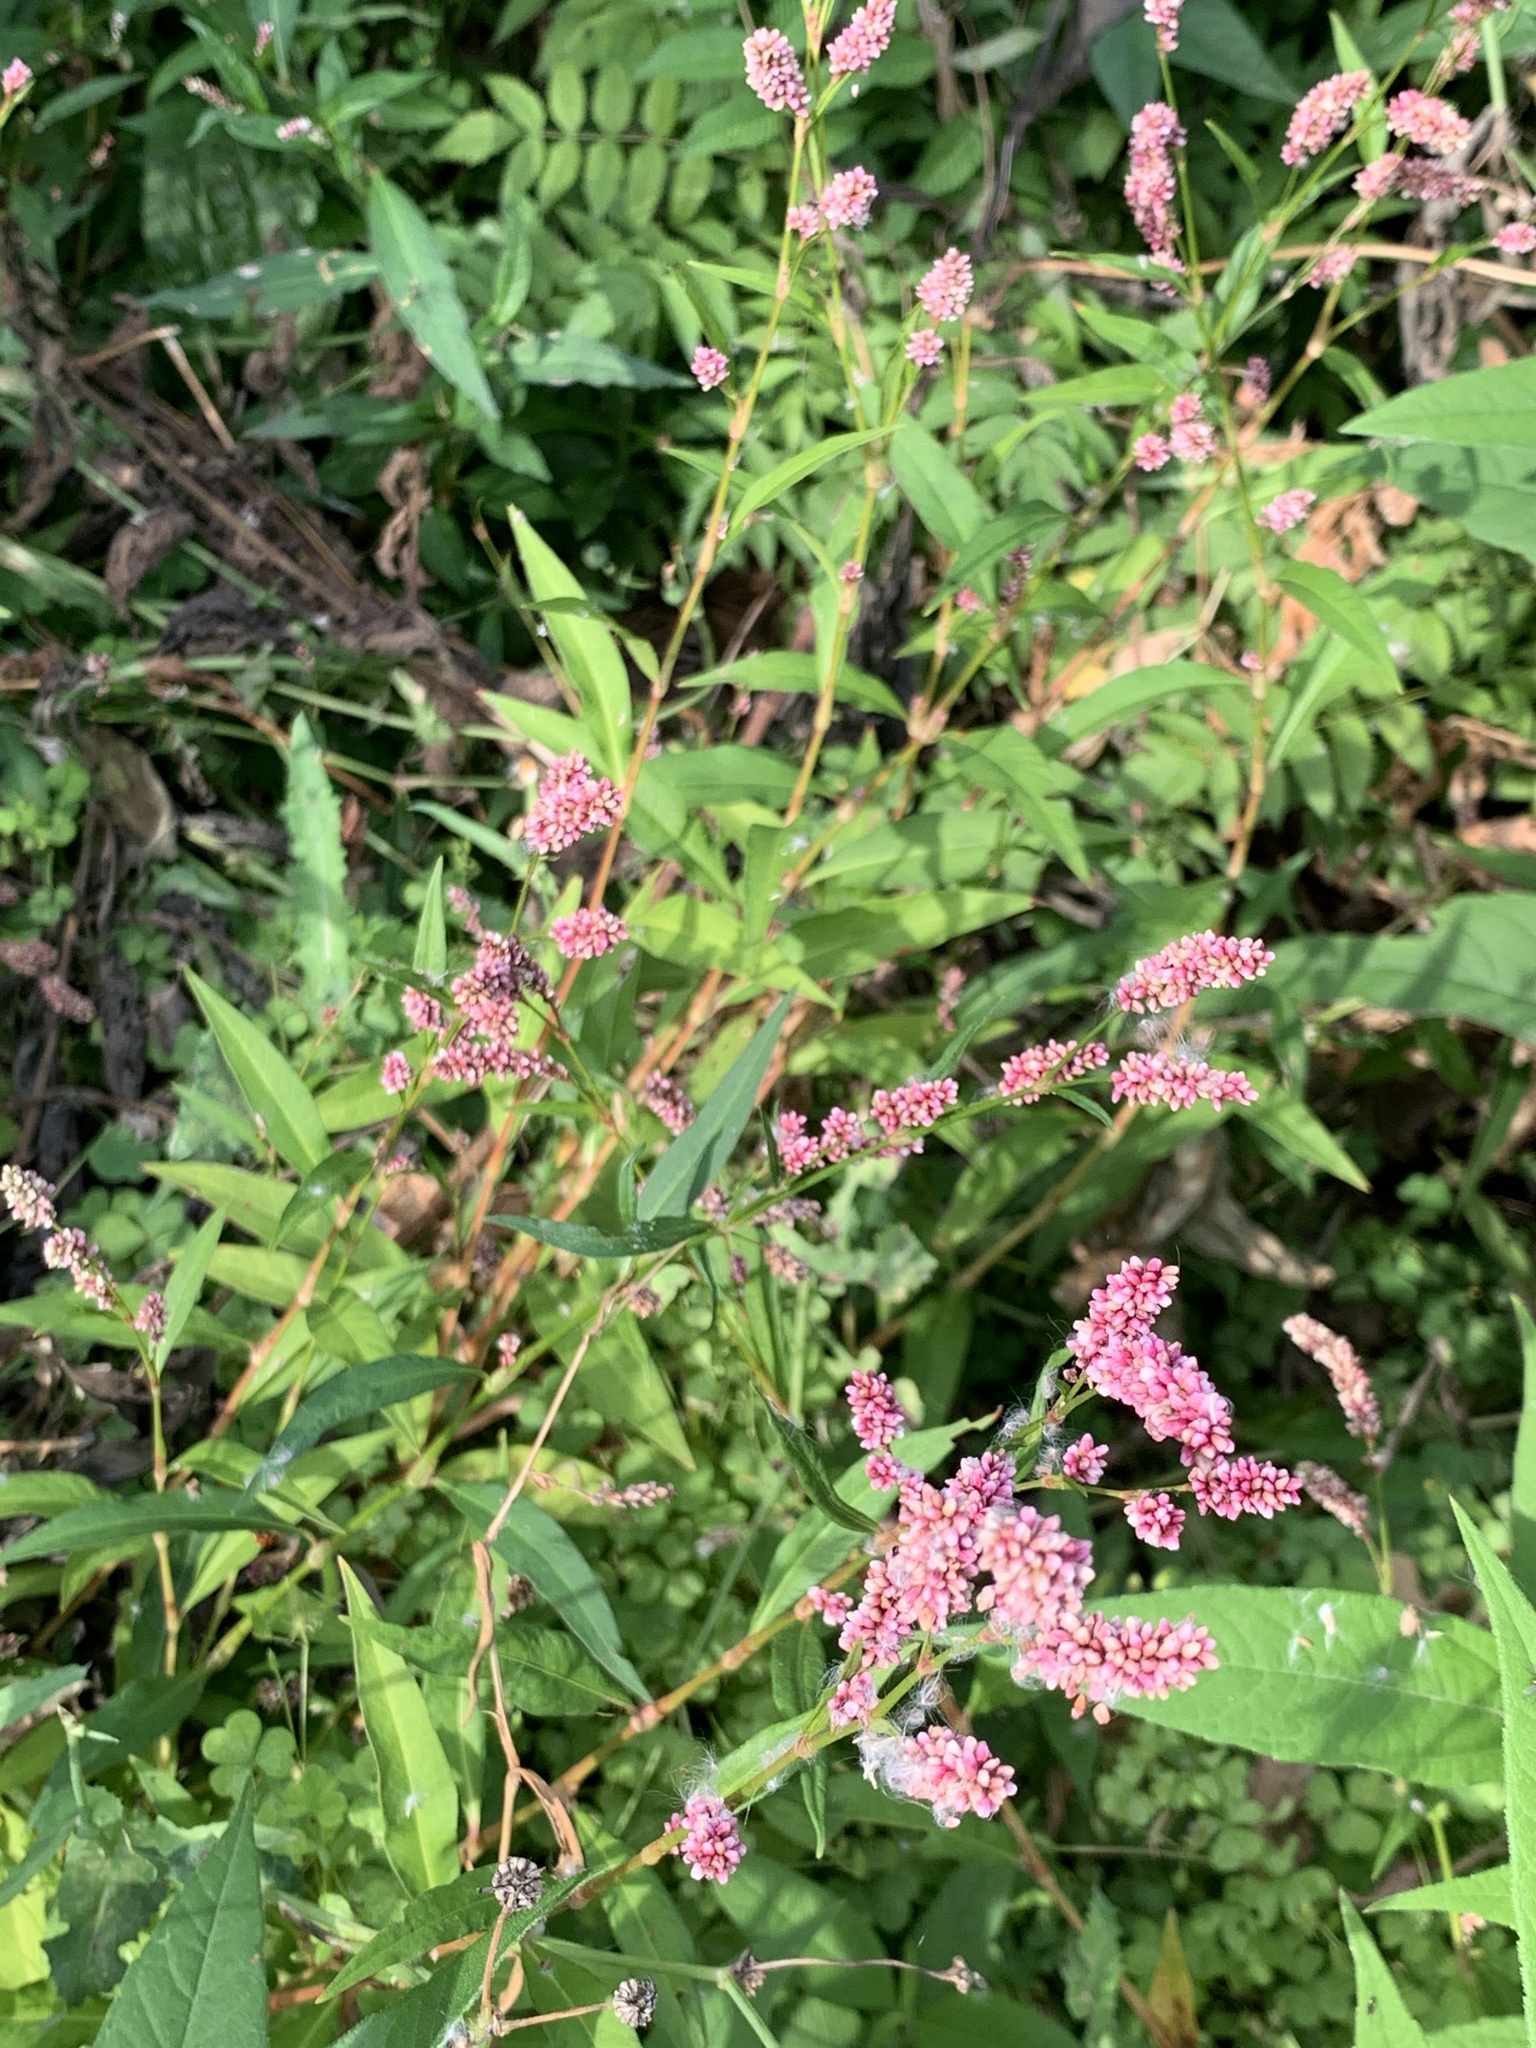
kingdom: Plantae
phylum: Tracheophyta
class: Magnoliopsida
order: Caryophyllales
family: Polygonaceae
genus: Persicaria
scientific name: Persicaria maculosa
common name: Redshank
